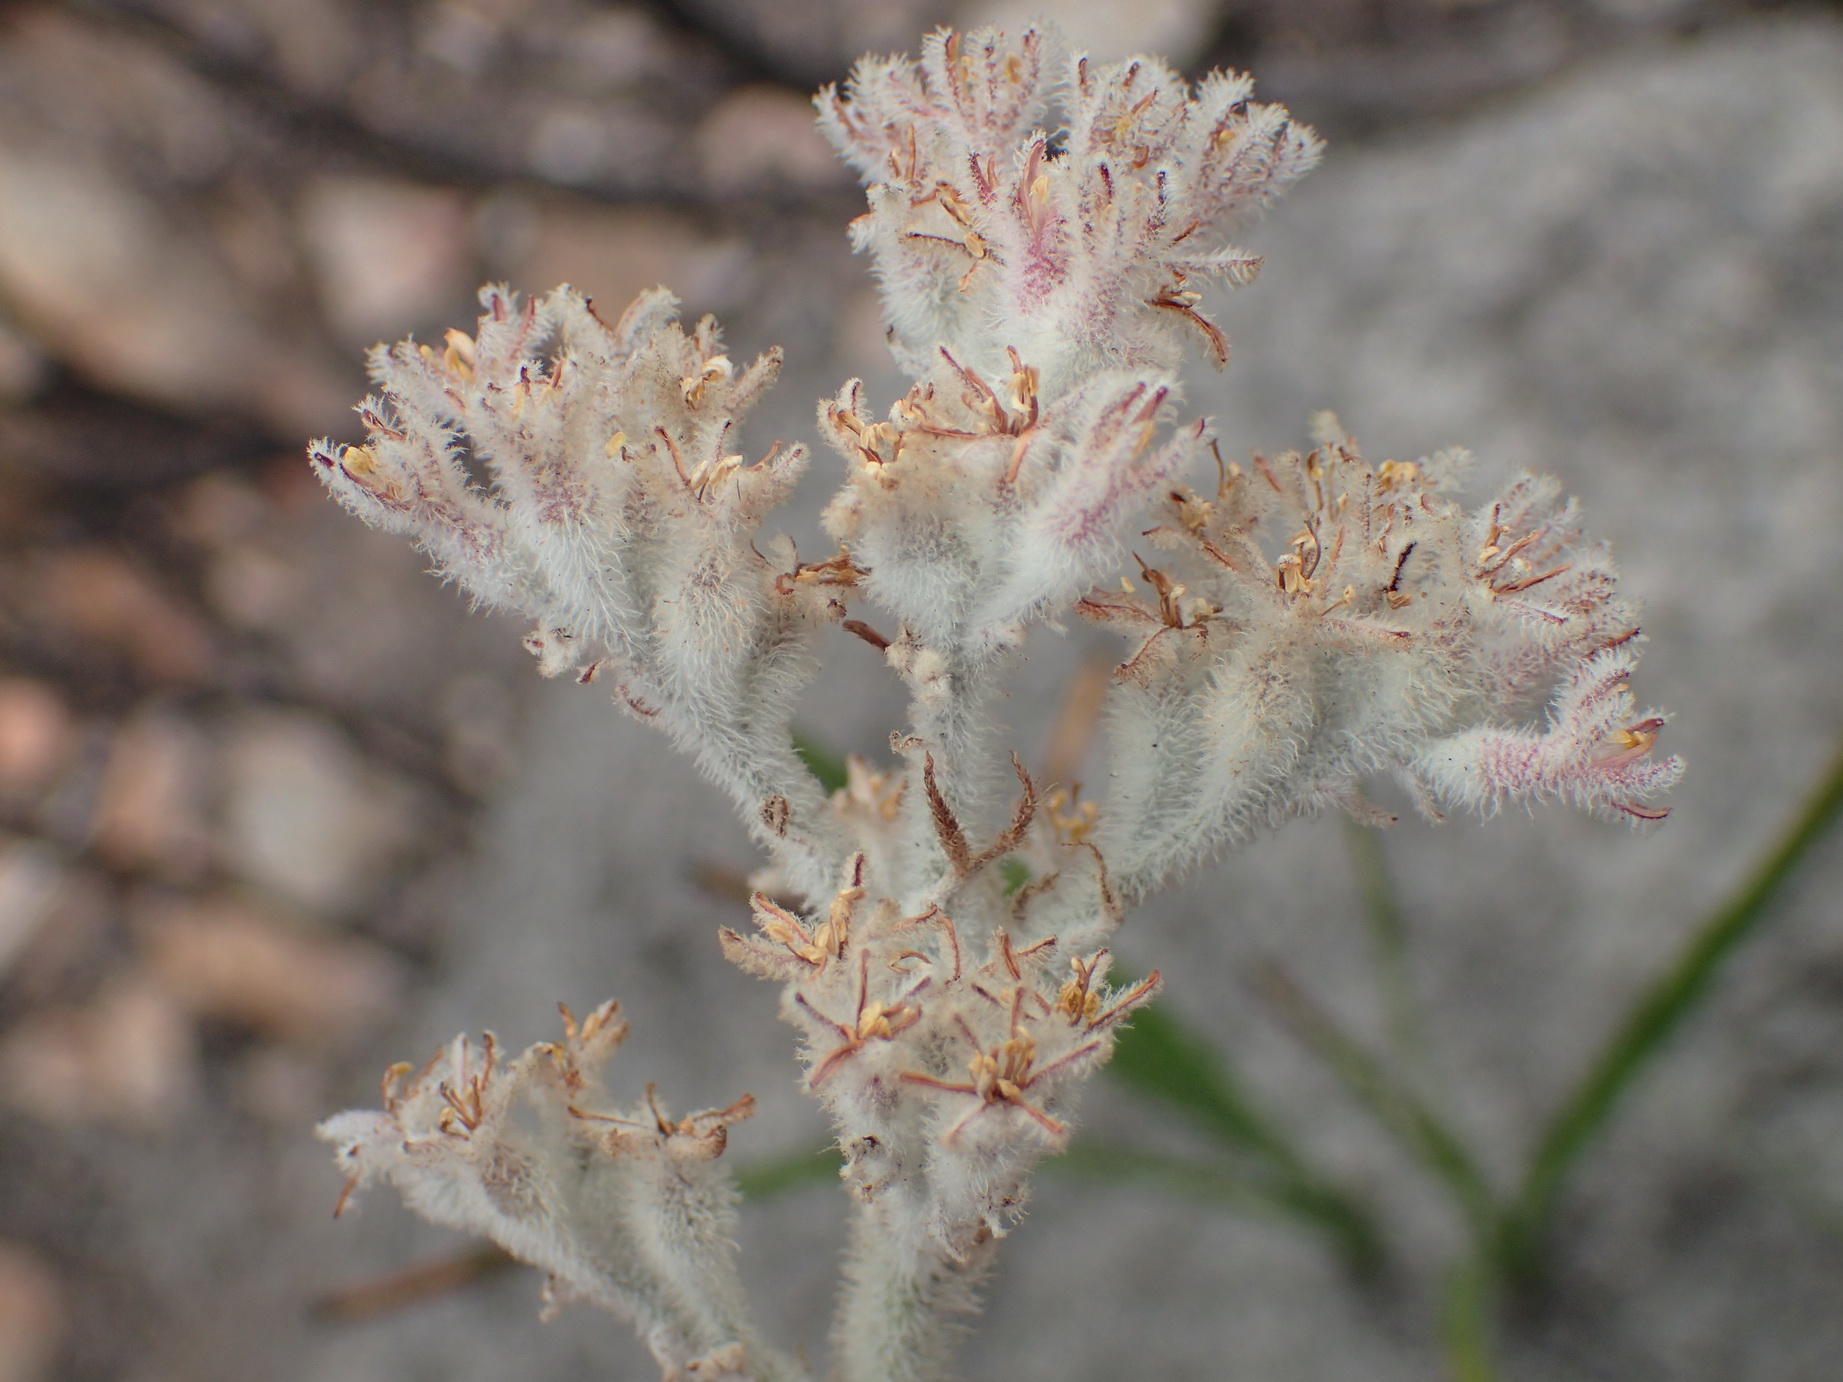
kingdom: Plantae
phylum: Tracheophyta
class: Liliopsida
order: Asparagales
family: Lanariaceae
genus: Lanaria
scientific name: Lanaria lanata
